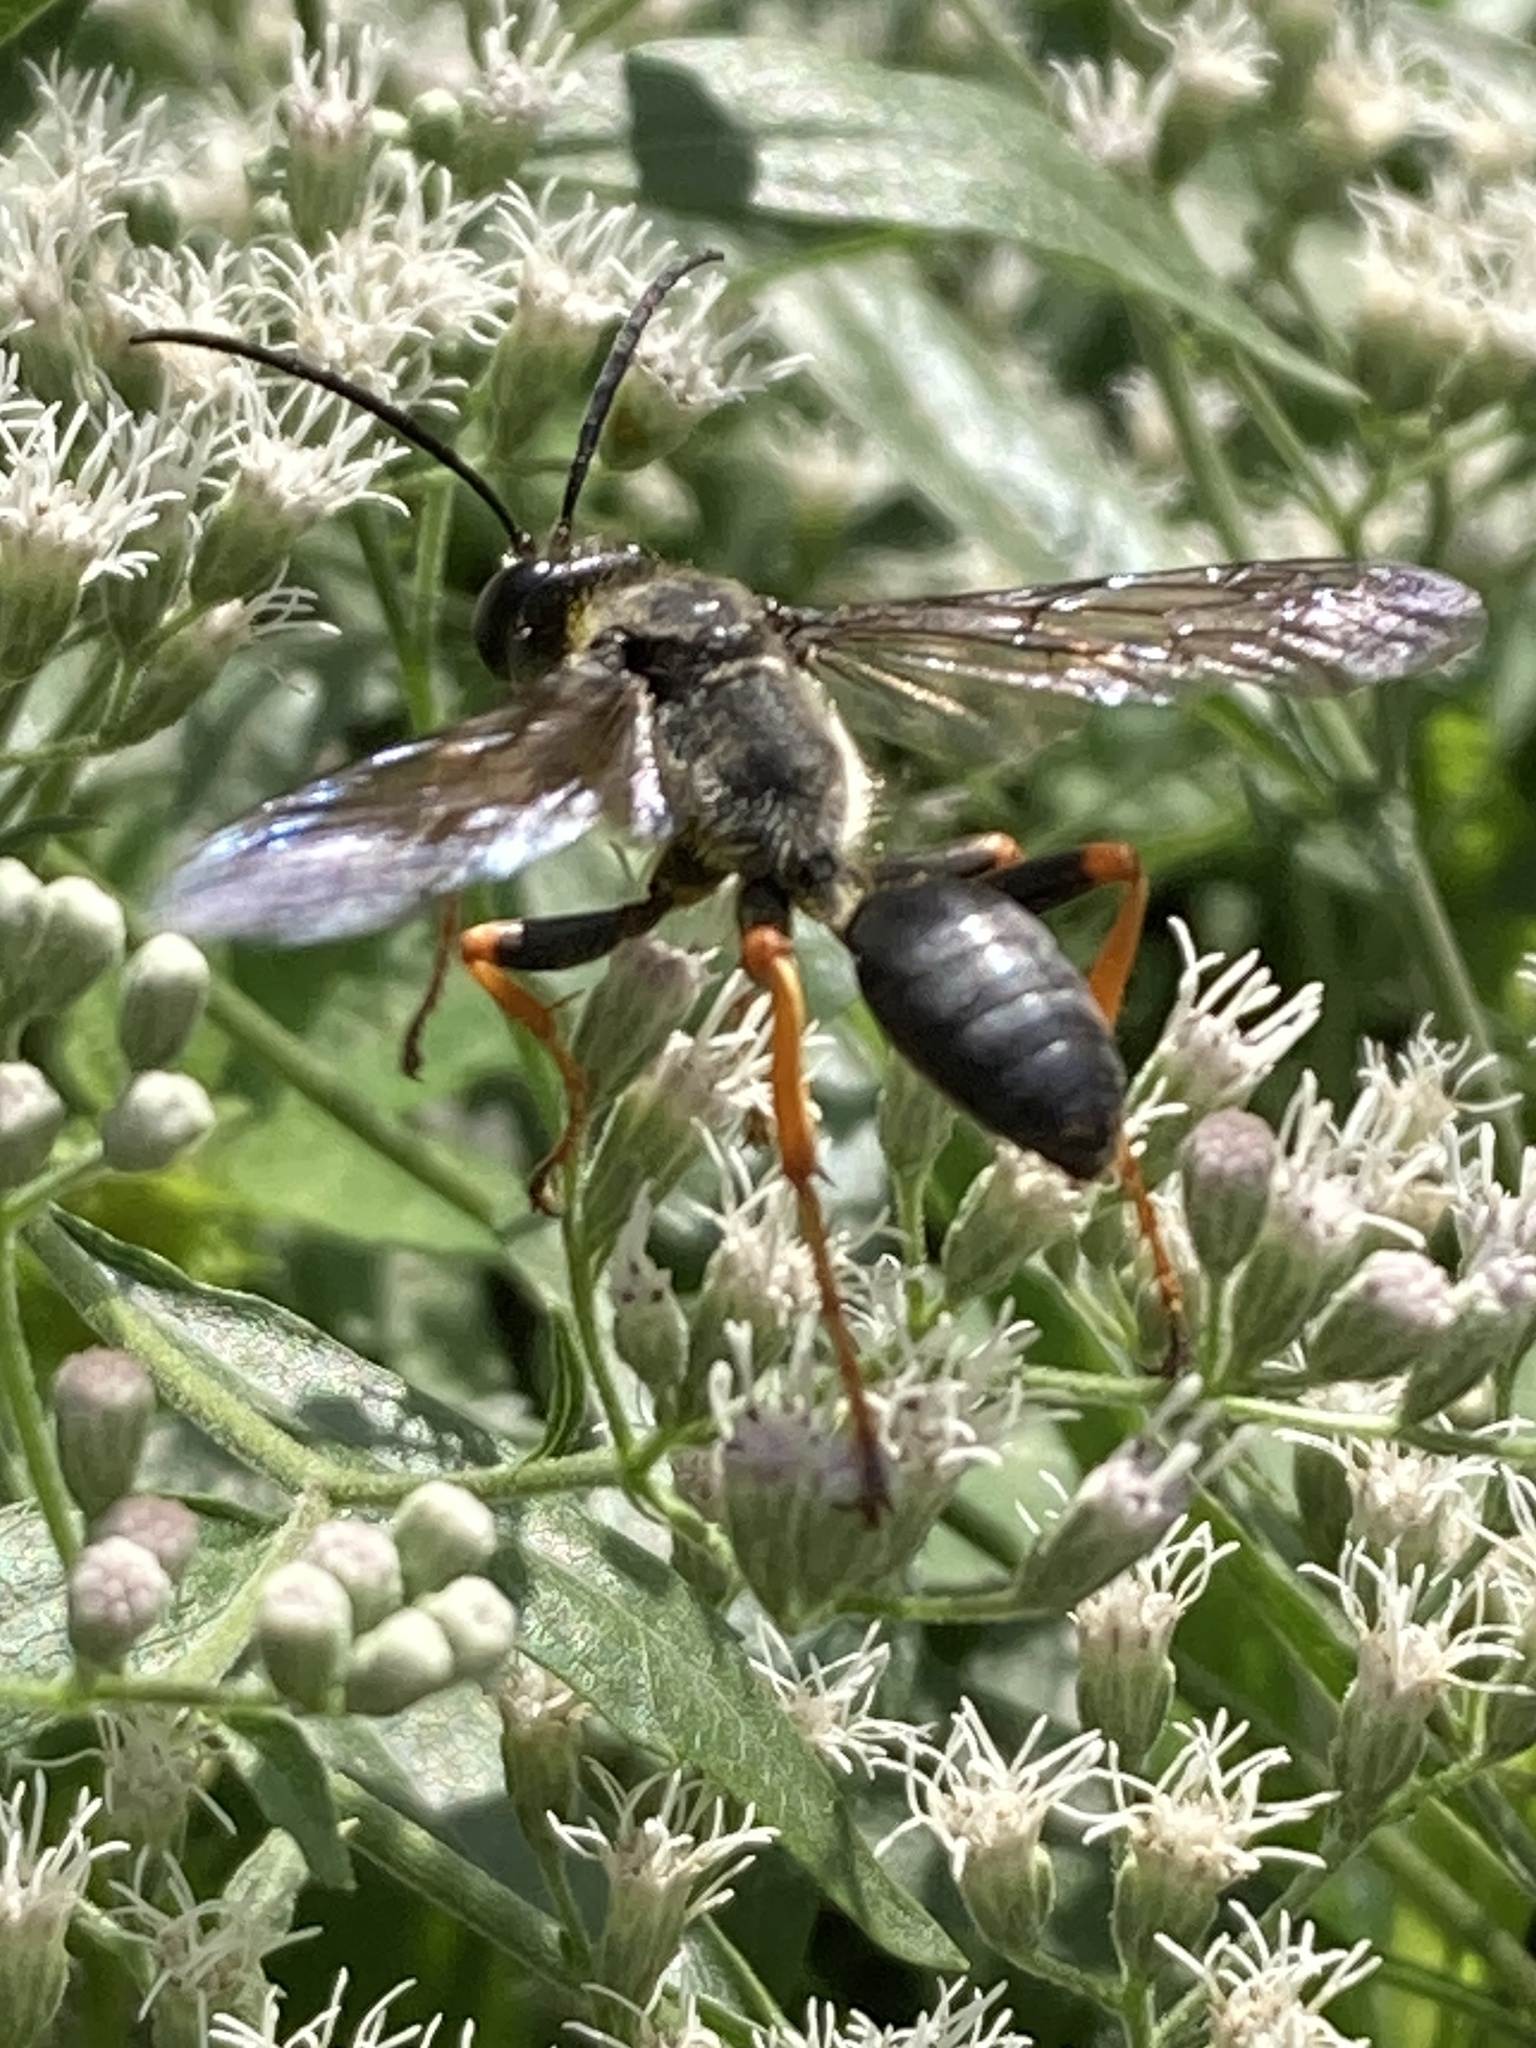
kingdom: Animalia
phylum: Arthropoda
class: Insecta
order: Hymenoptera
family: Sphecidae
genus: Sphex
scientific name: Sphex nudus
